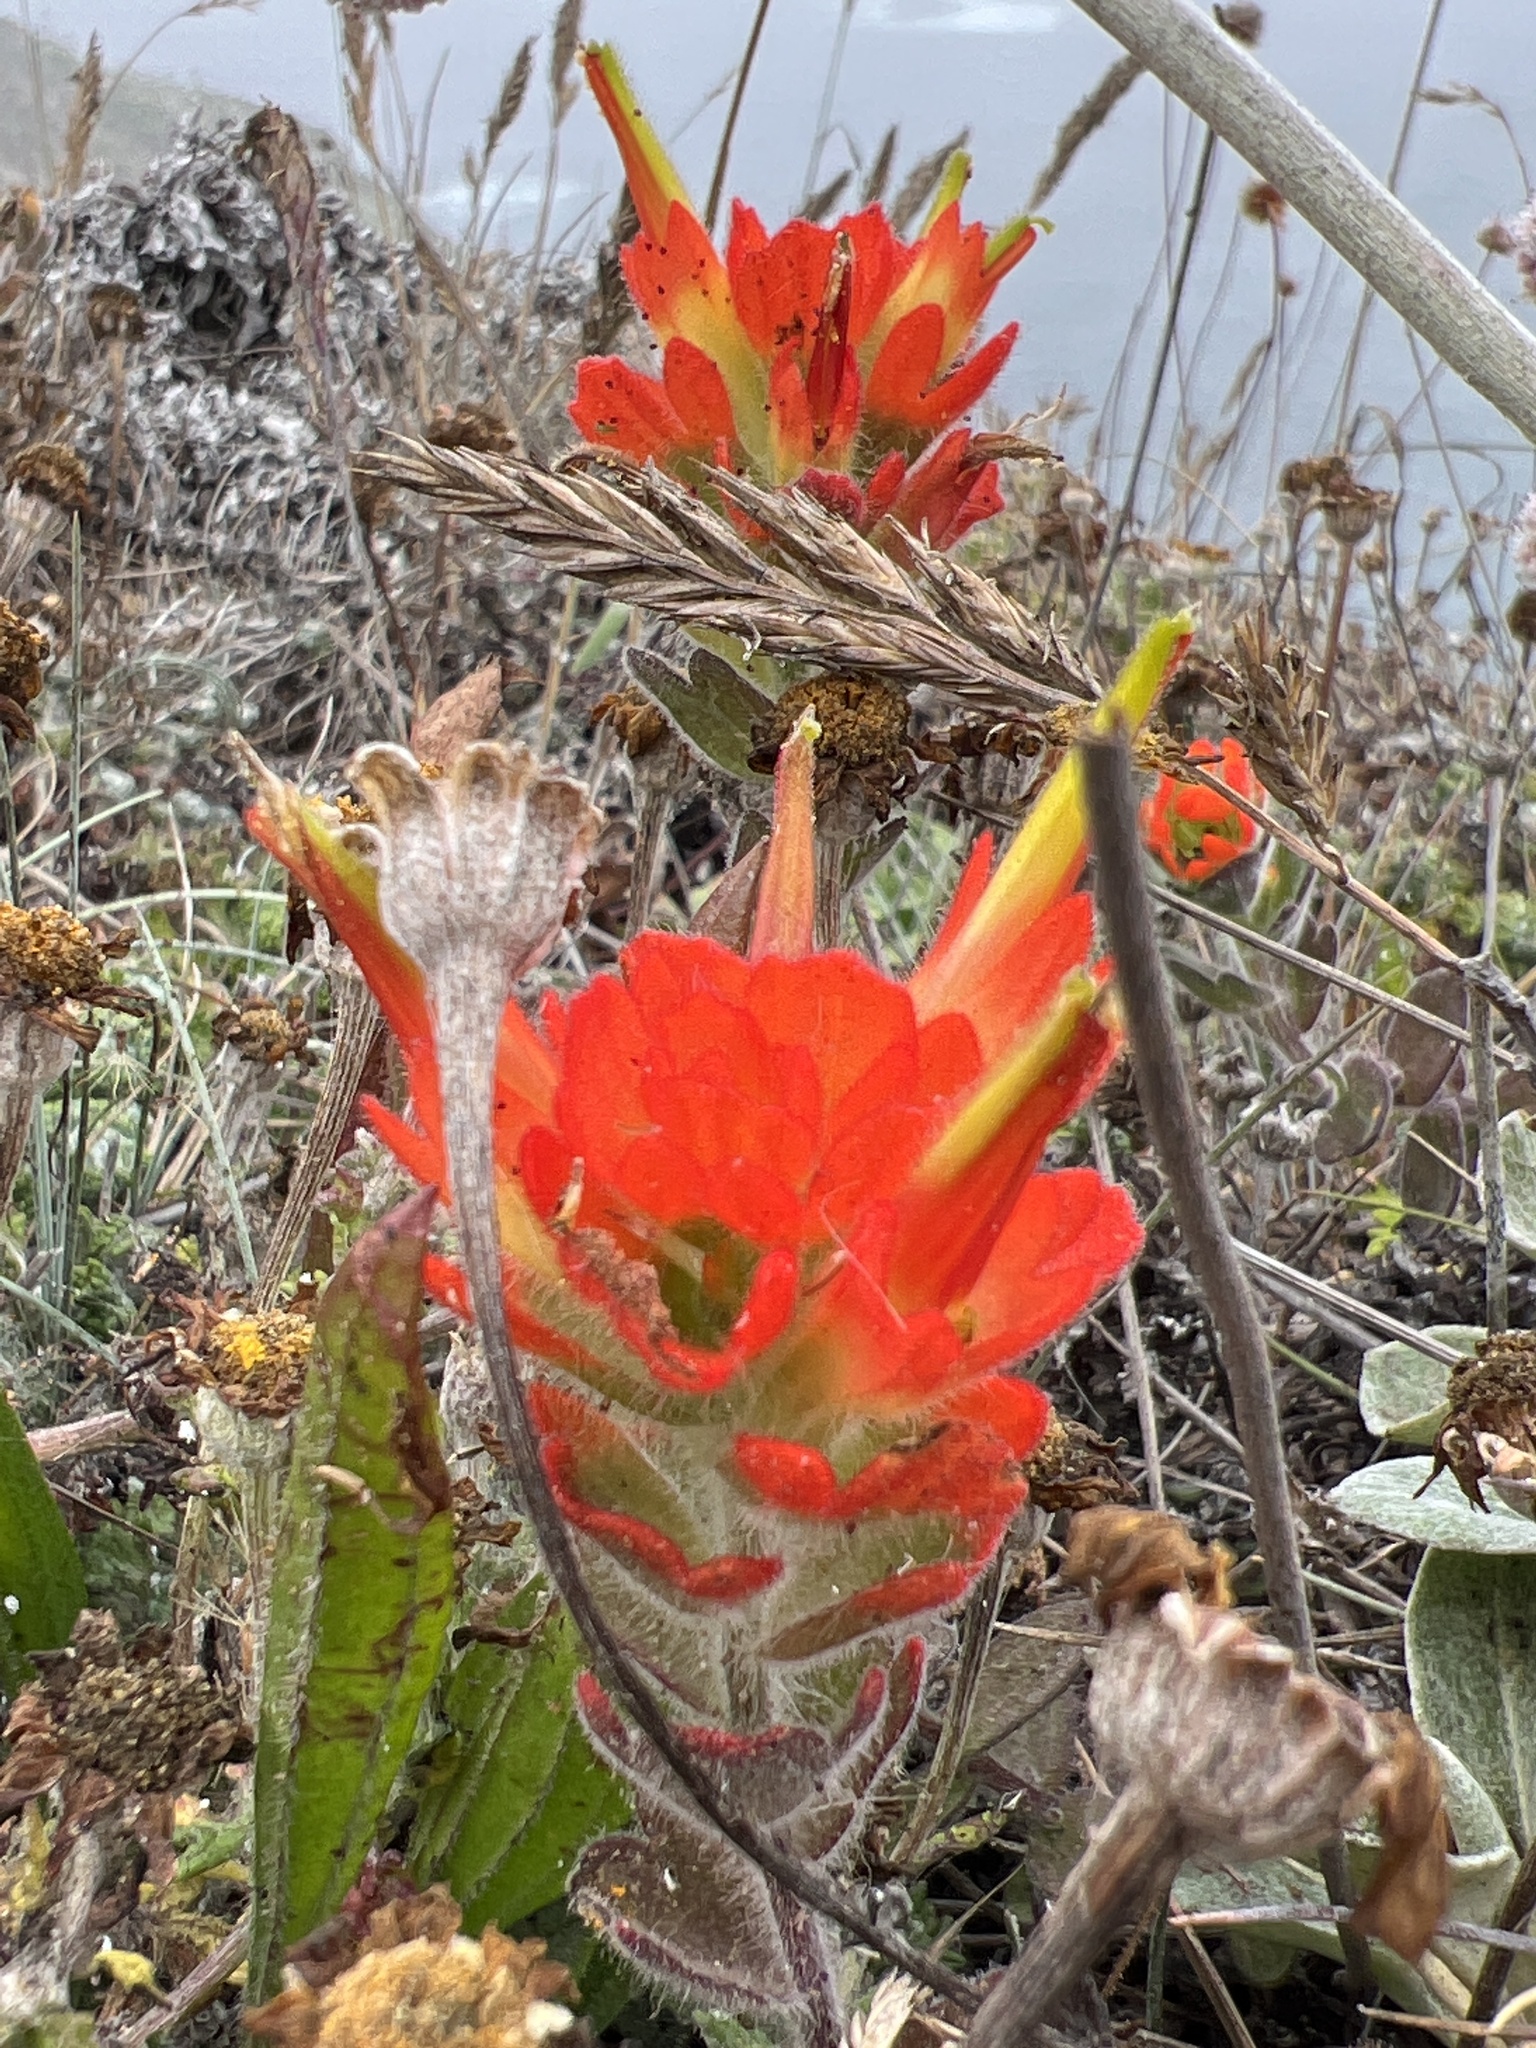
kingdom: Plantae
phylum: Tracheophyta
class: Magnoliopsida
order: Lamiales
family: Orobanchaceae
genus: Castilleja
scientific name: Castilleja mendocinensis
